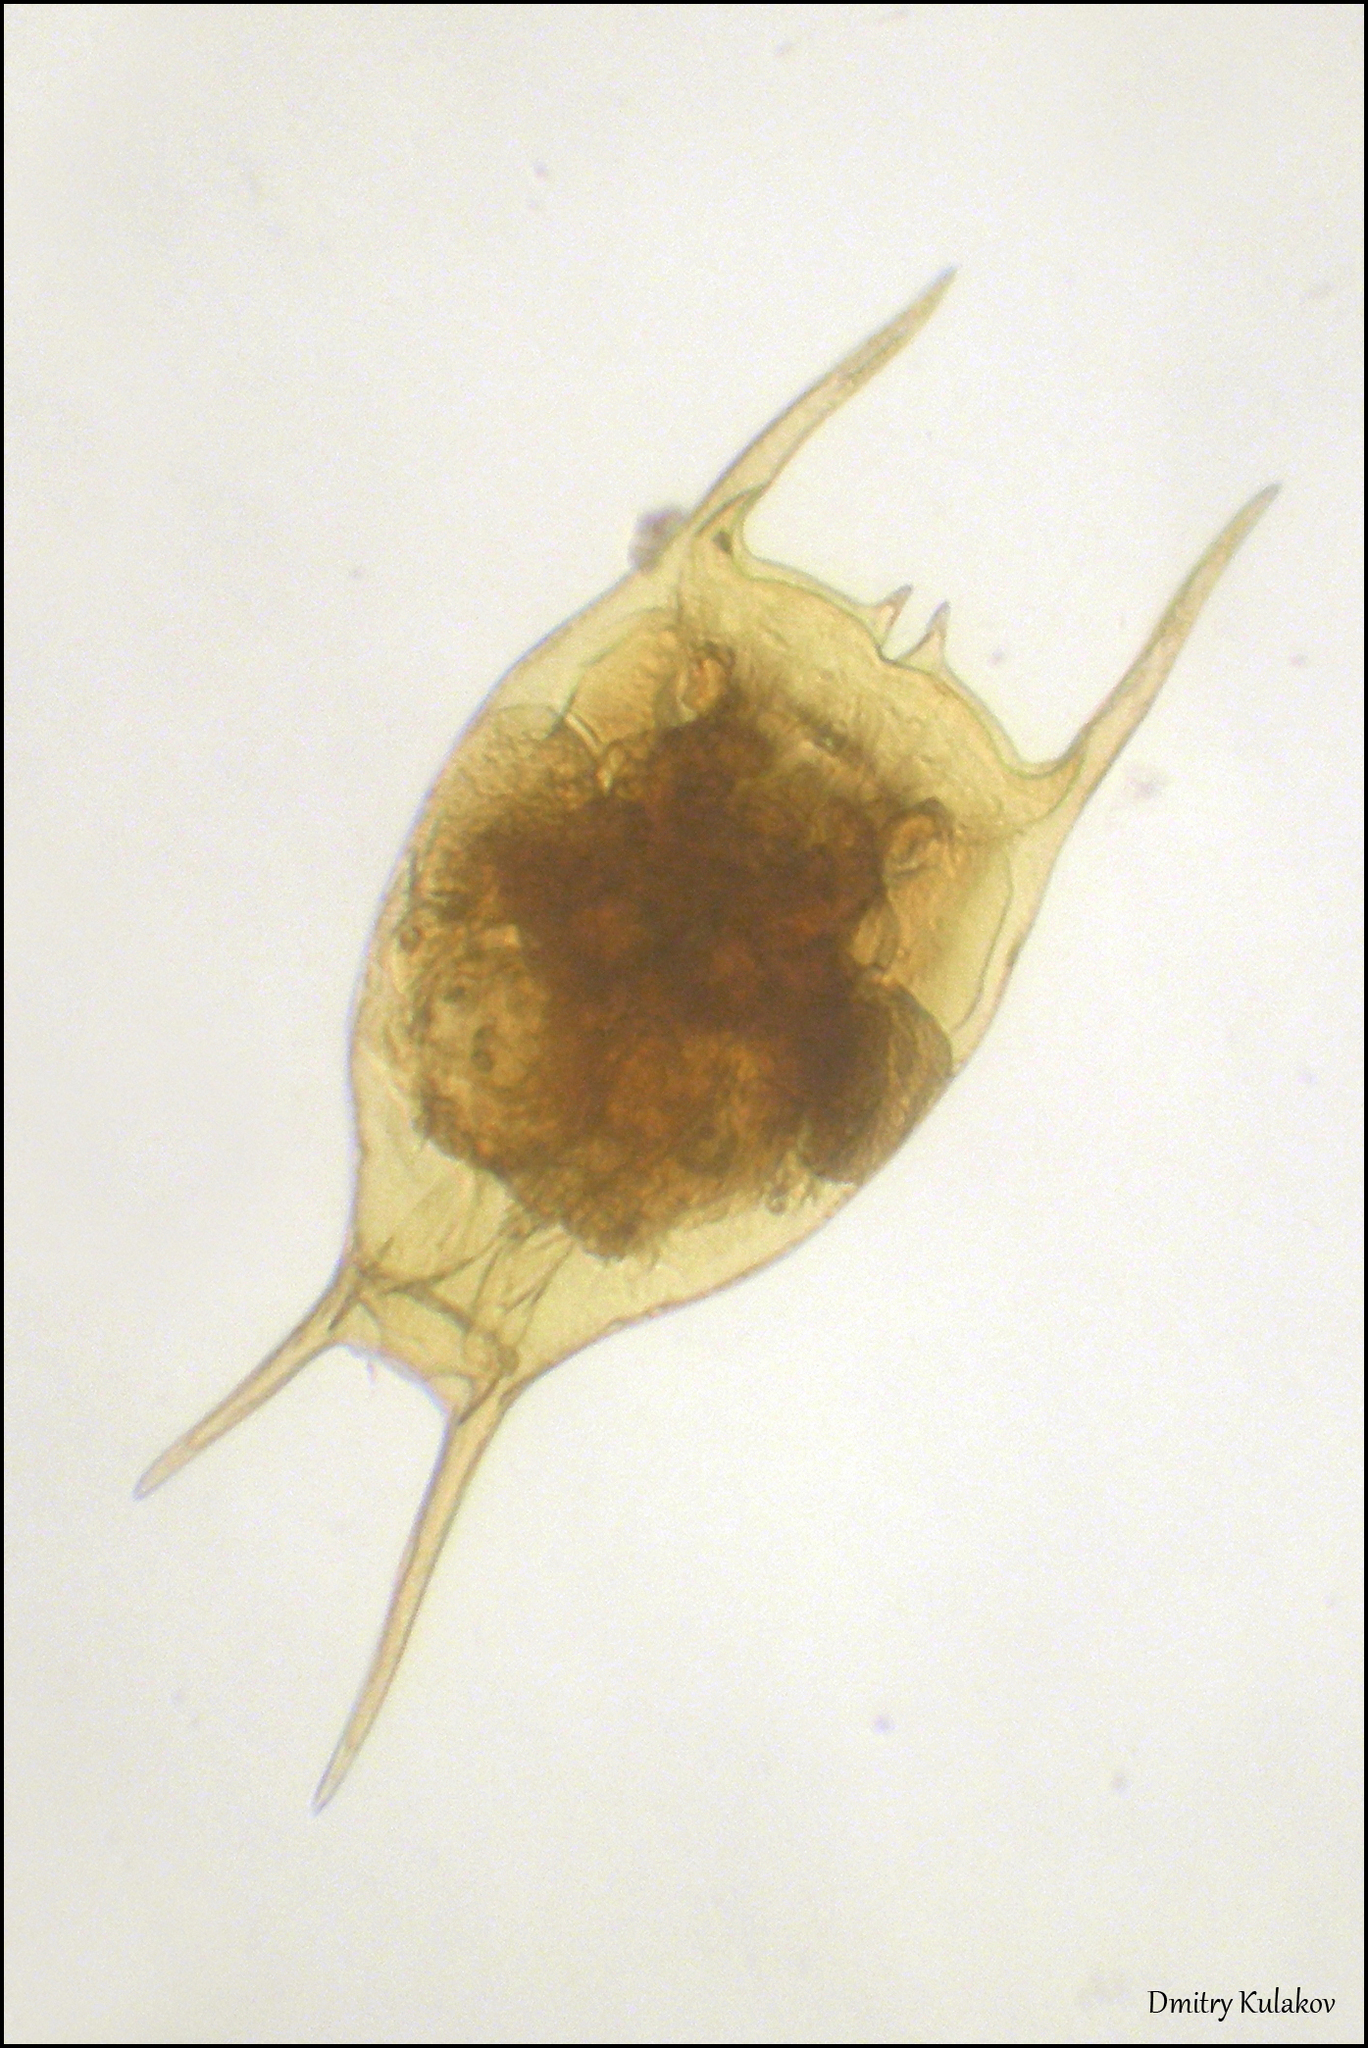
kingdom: Animalia
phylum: Rotifera
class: Eurotatoria
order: Ploima
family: Brachionidae
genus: Brachionus
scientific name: Brachionus diversicornis
